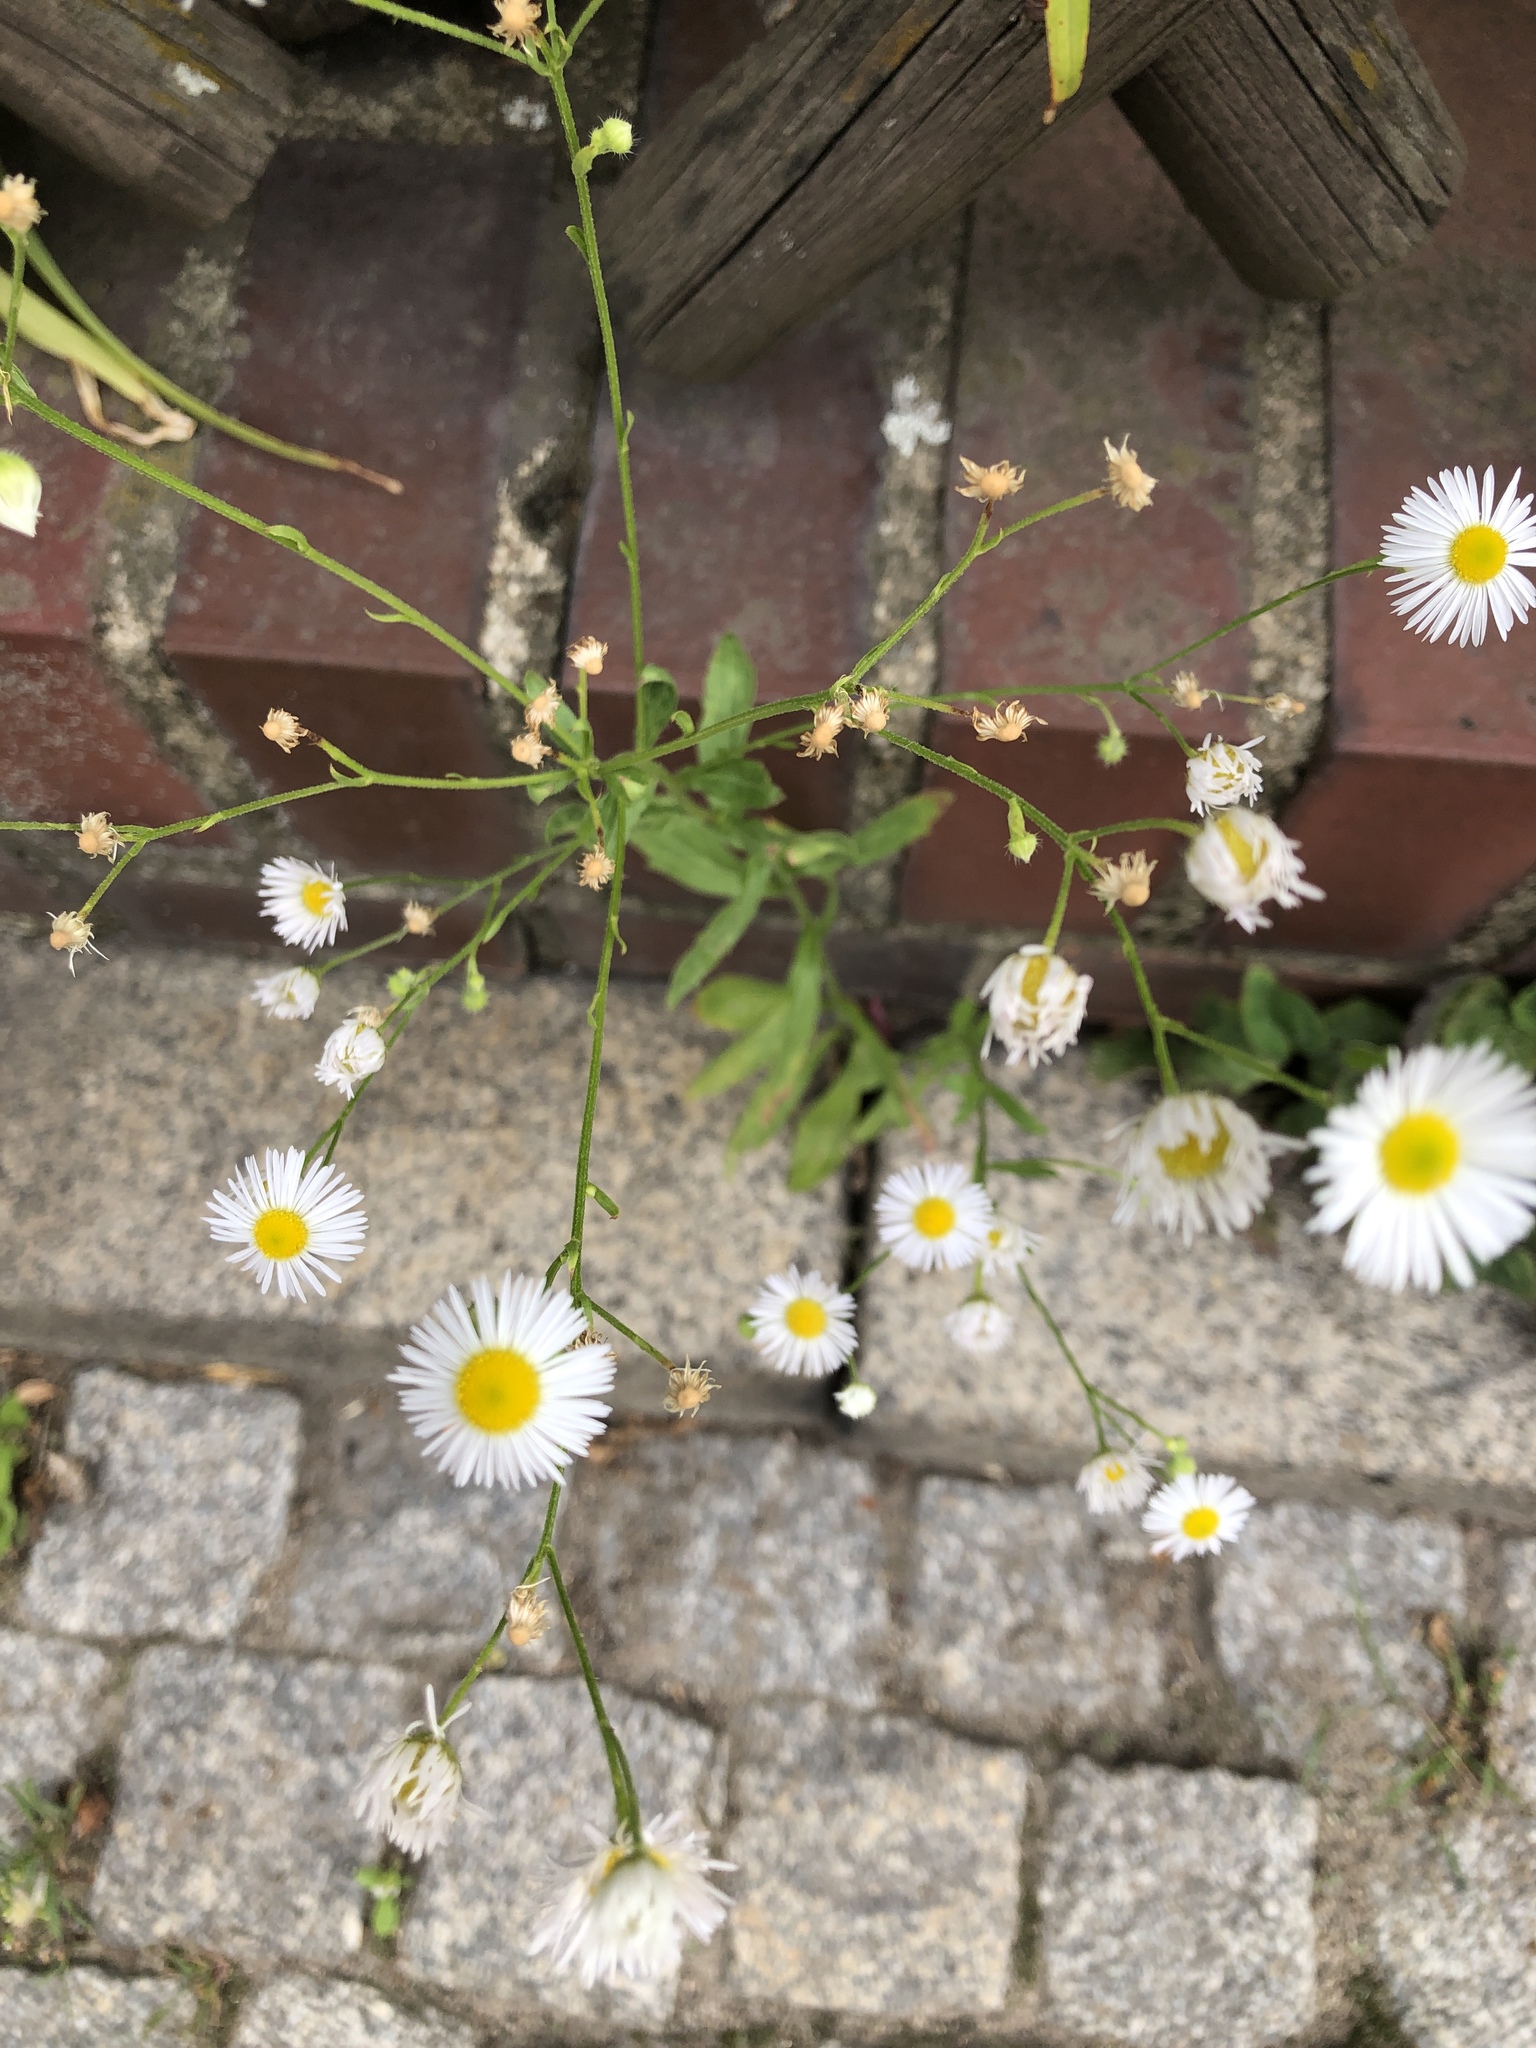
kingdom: Plantae
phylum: Tracheophyta
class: Magnoliopsida
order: Asterales
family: Asteraceae
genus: Erigeron
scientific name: Erigeron annuus
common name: Tall fleabane
